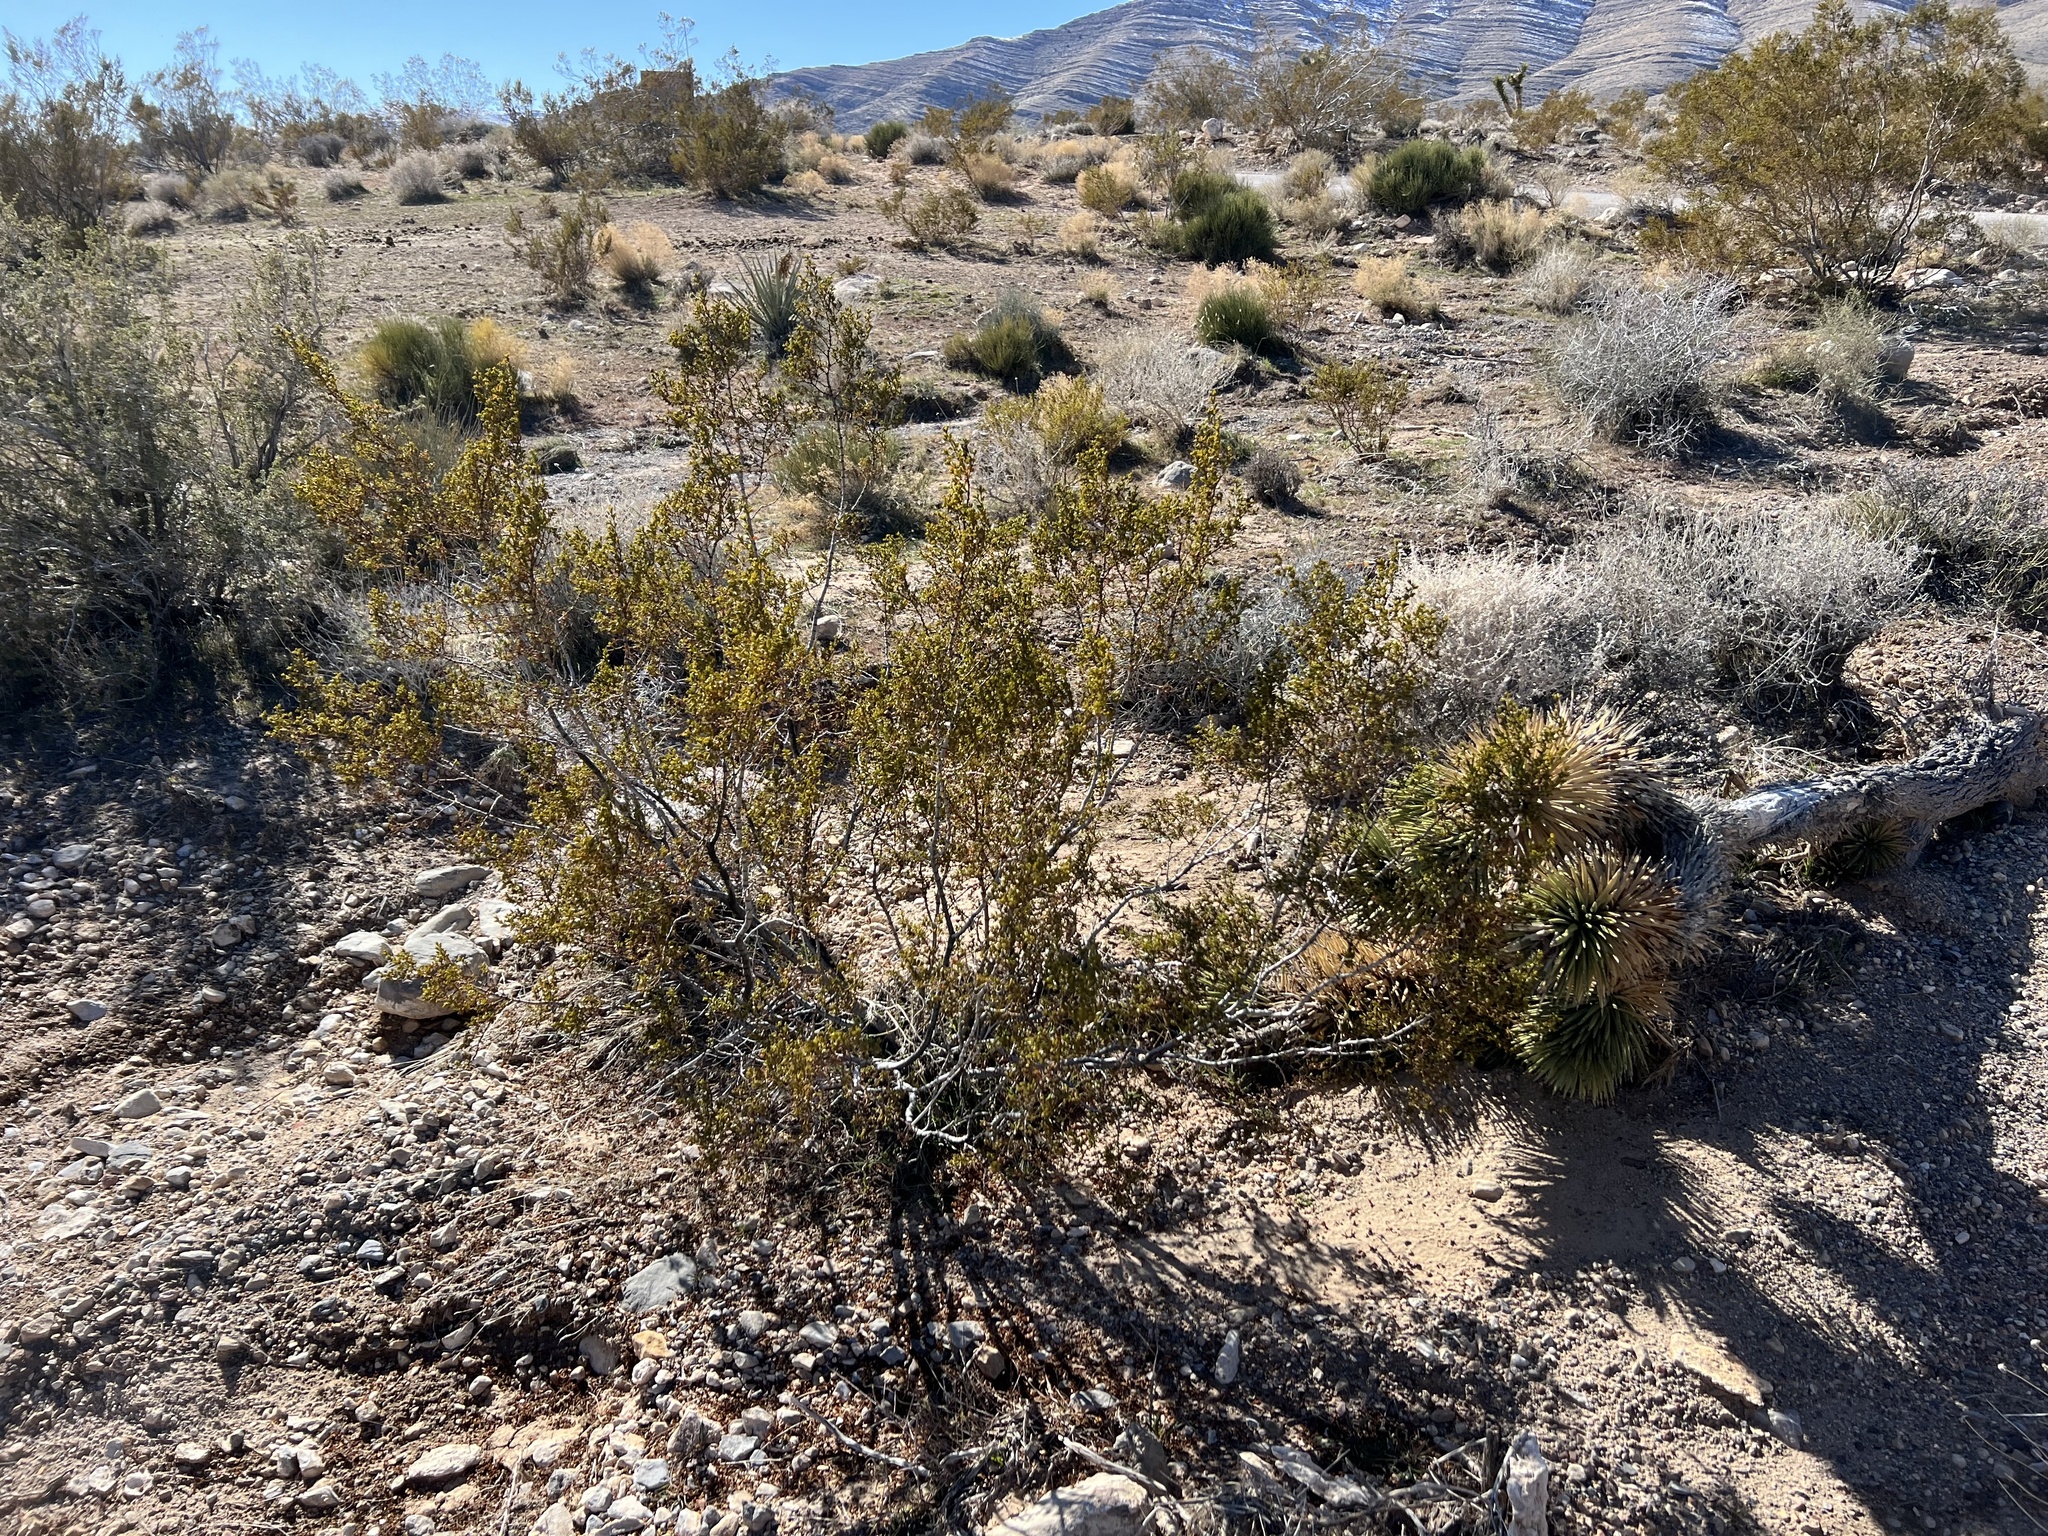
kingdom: Plantae
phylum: Tracheophyta
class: Magnoliopsida
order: Zygophyllales
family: Zygophyllaceae
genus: Larrea
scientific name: Larrea tridentata
